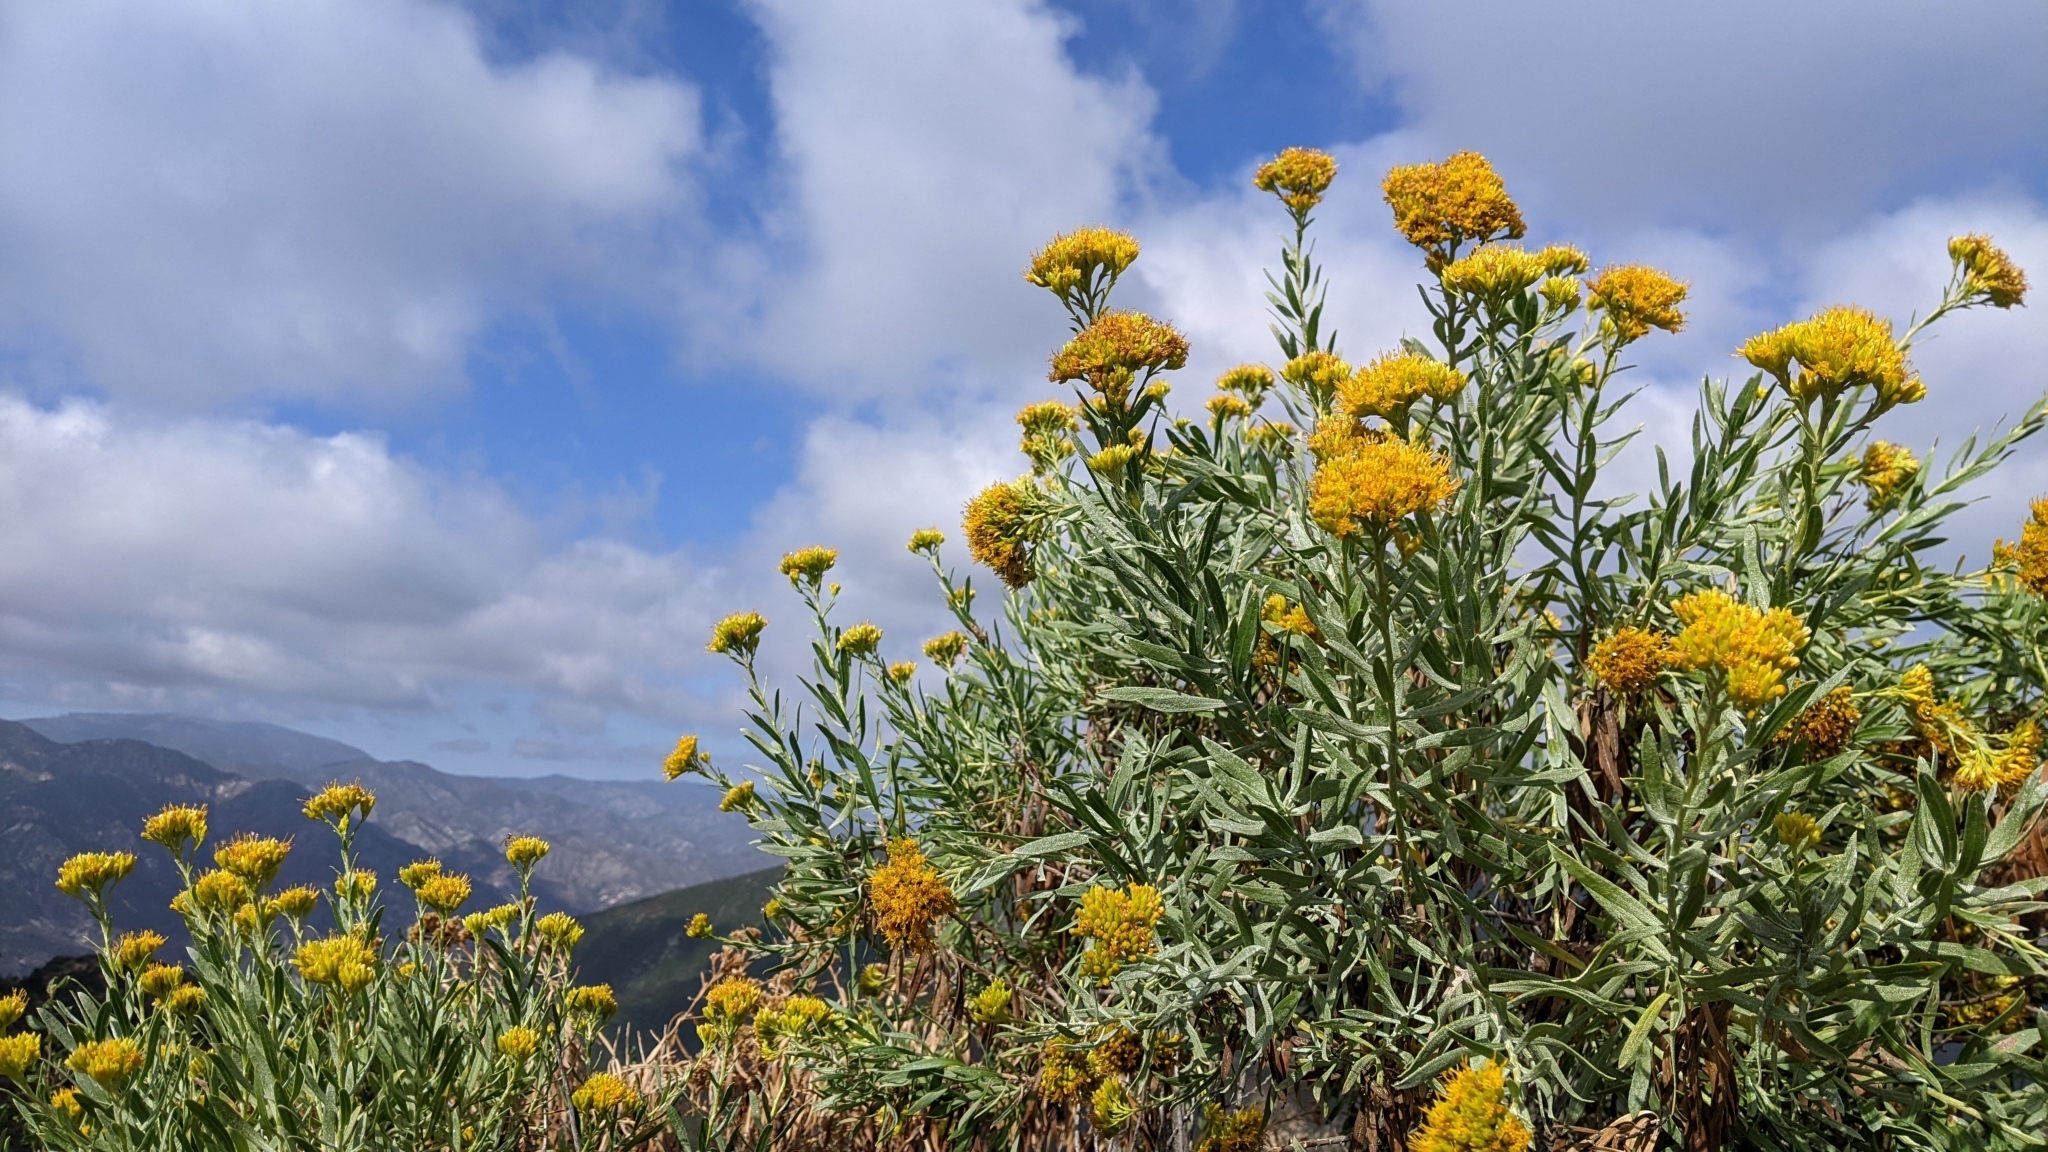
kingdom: Plantae
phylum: Tracheophyta
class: Magnoliopsida
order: Asterales
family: Asteraceae
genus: Ericameria
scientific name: Ericameria parishii
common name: Parish's goldenbush
